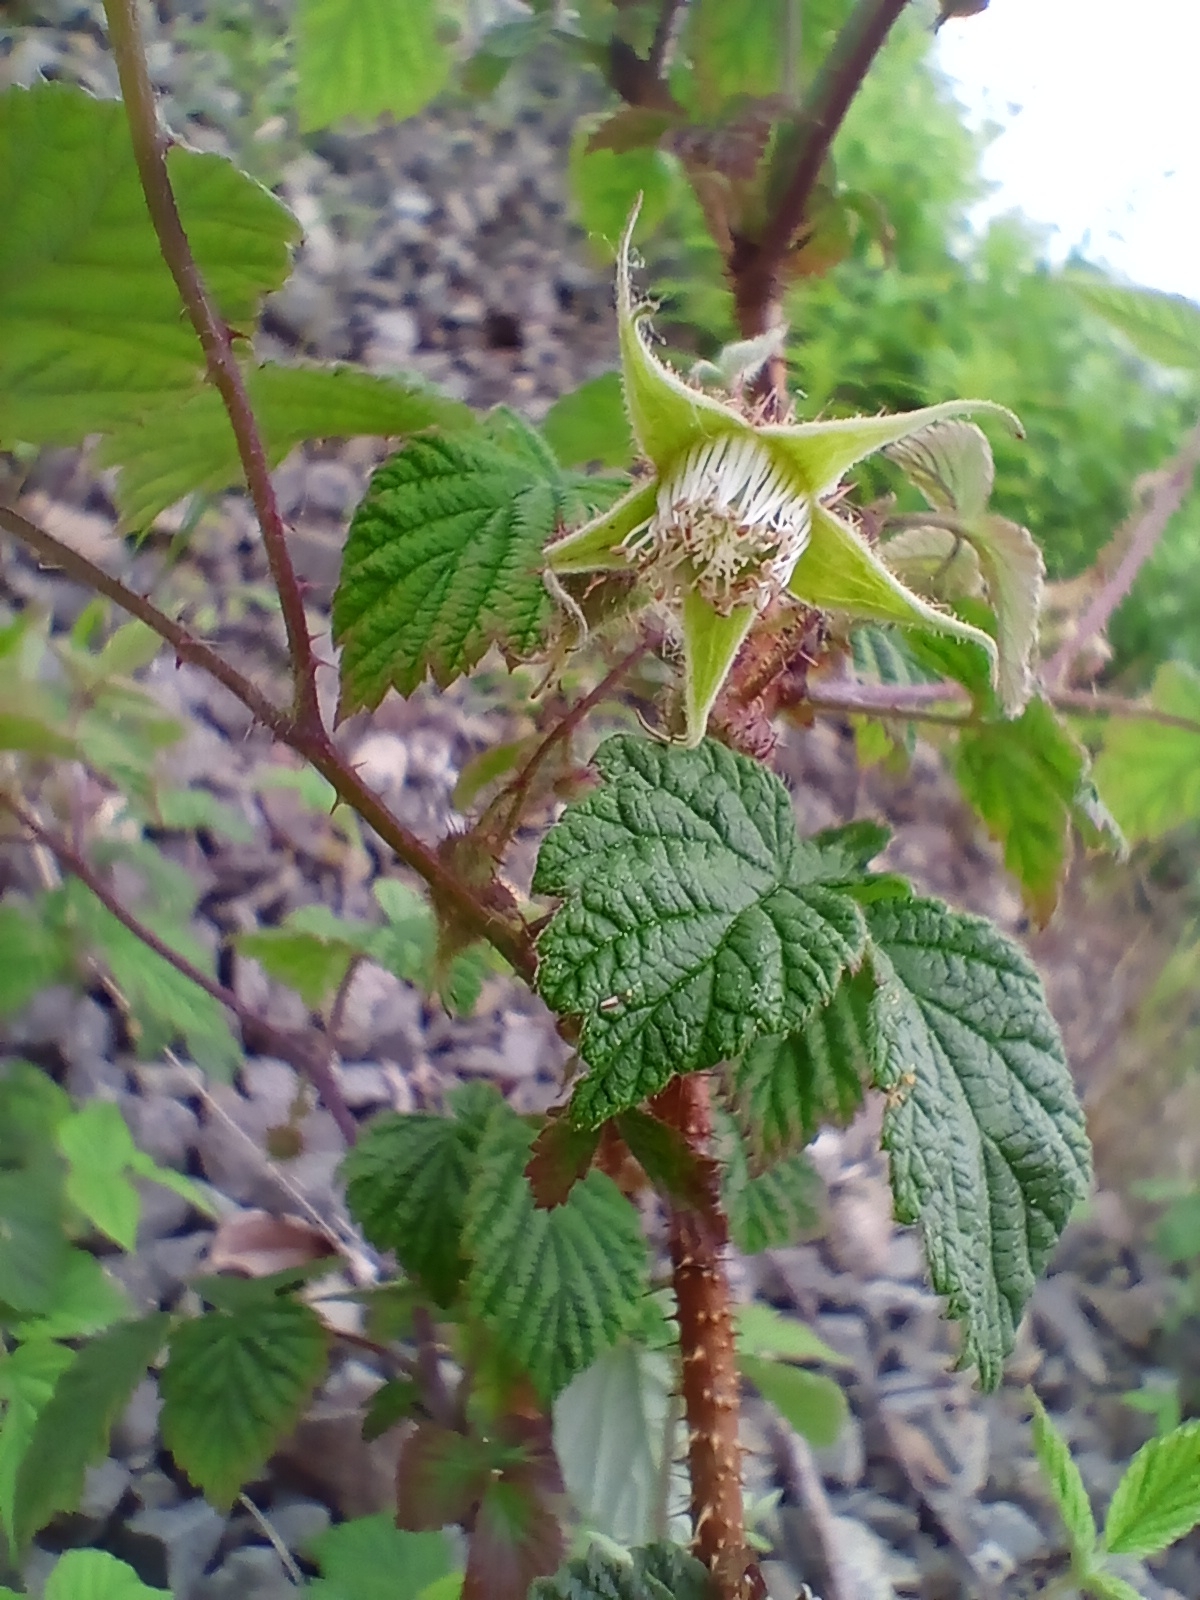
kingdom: Plantae
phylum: Tracheophyta
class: Magnoliopsida
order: Rosales
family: Rosaceae
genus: Rubus
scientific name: Rubus idaeus
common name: Raspberry
